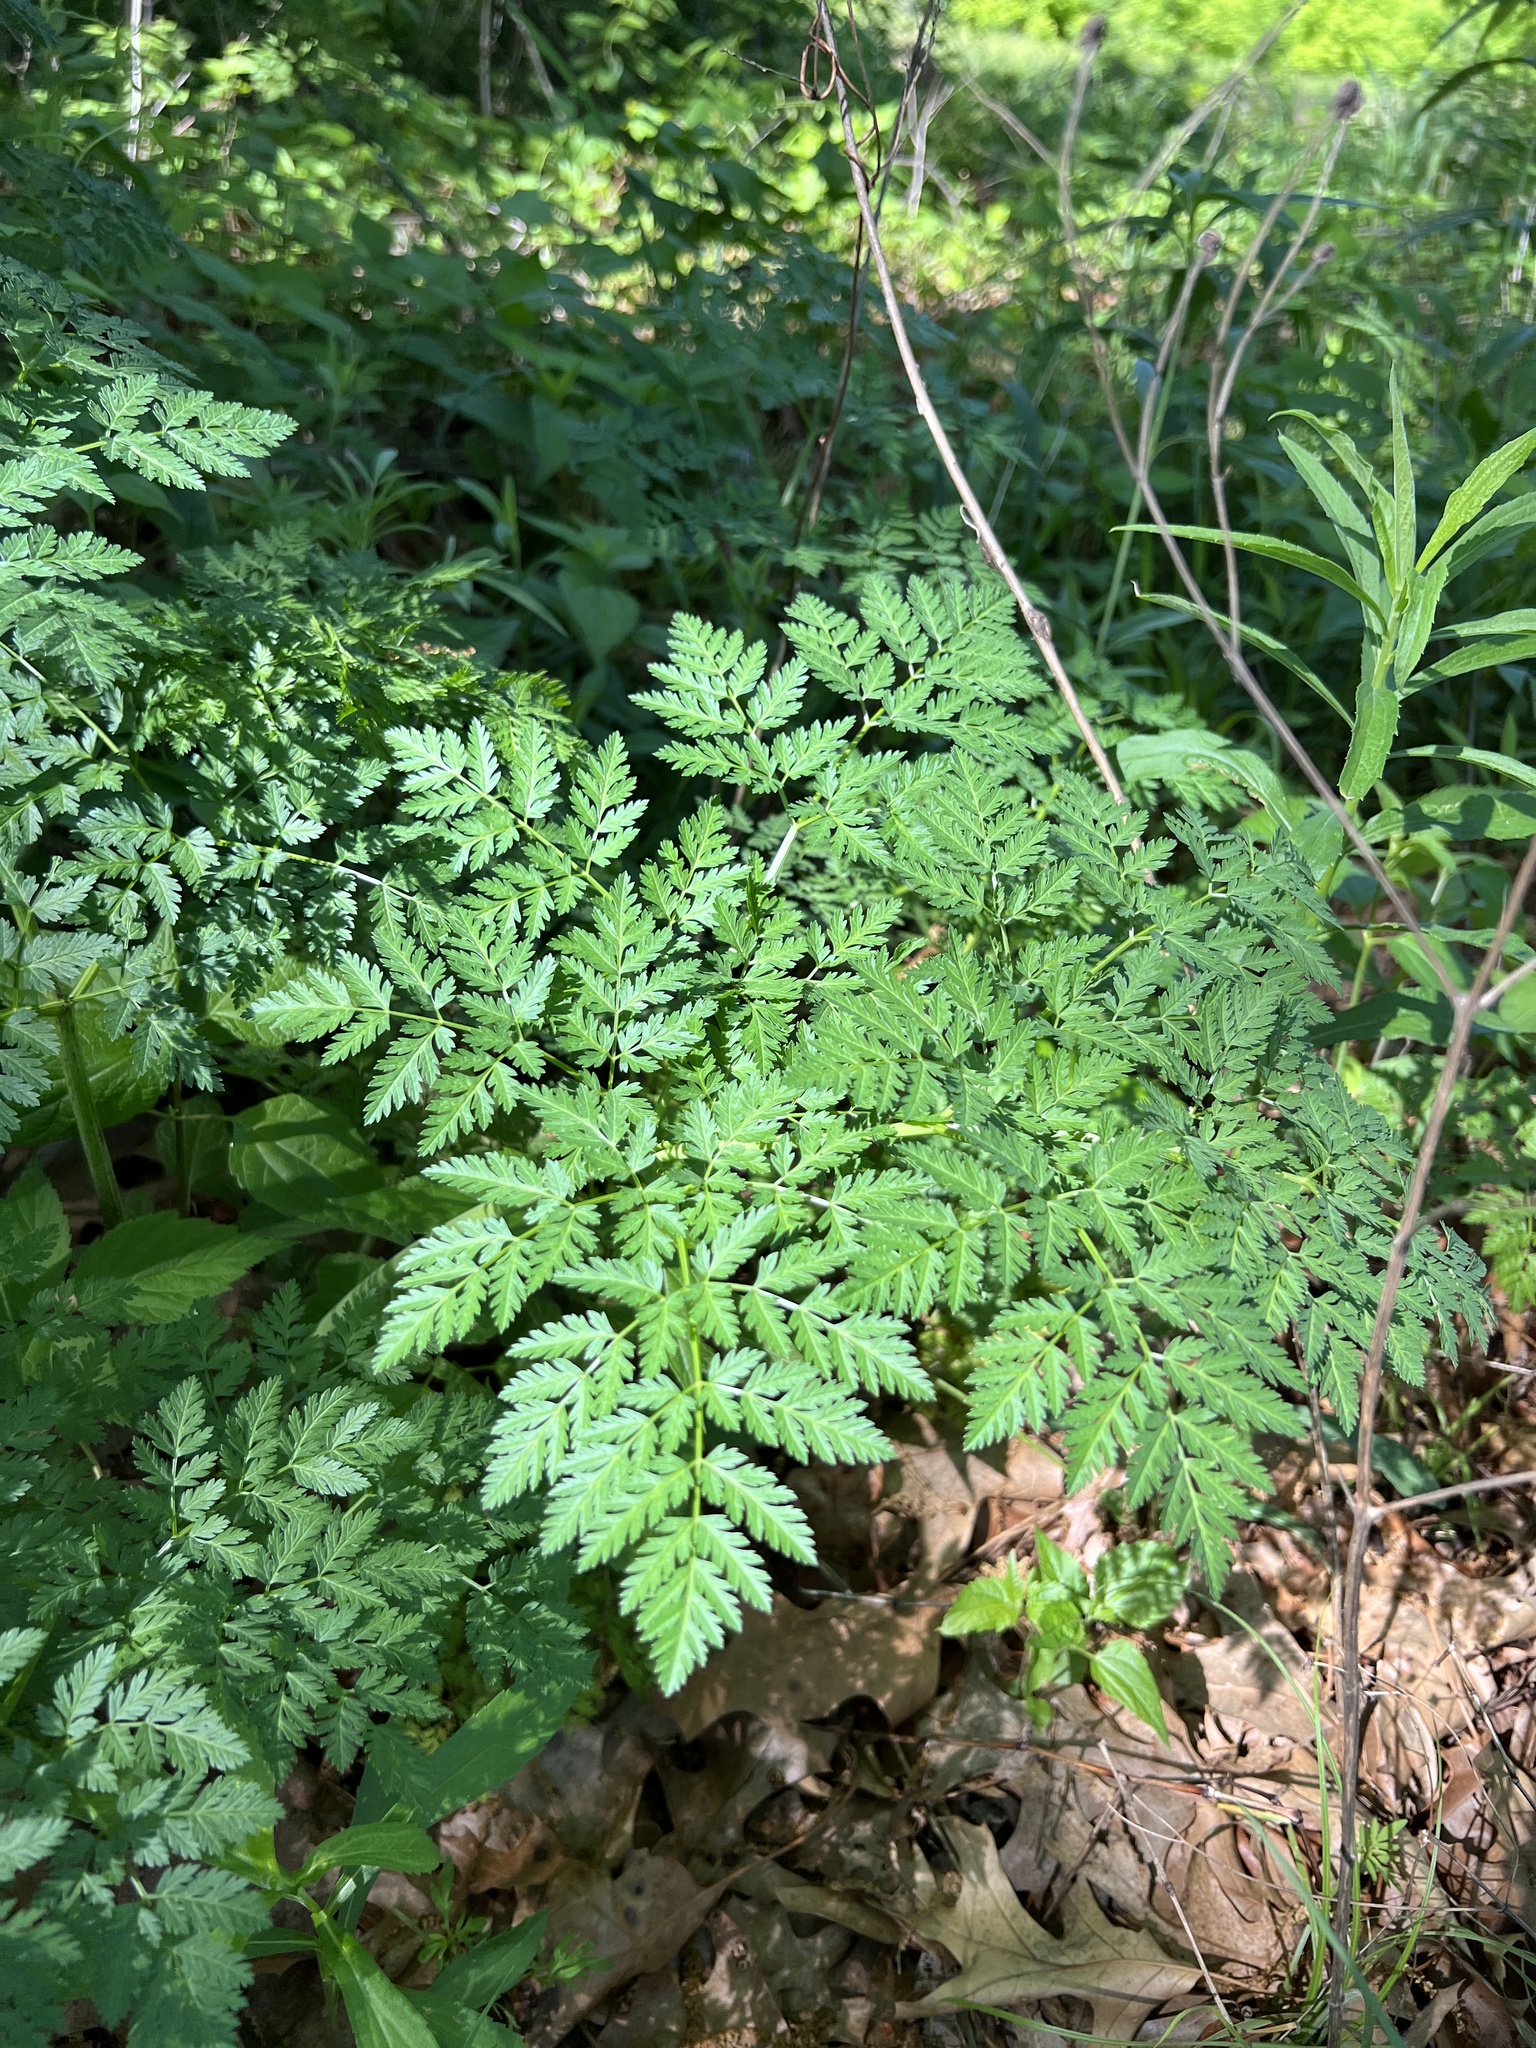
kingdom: Plantae
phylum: Tracheophyta
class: Magnoliopsida
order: Apiales
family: Apiaceae
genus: Conium
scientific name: Conium maculatum
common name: Hemlock
